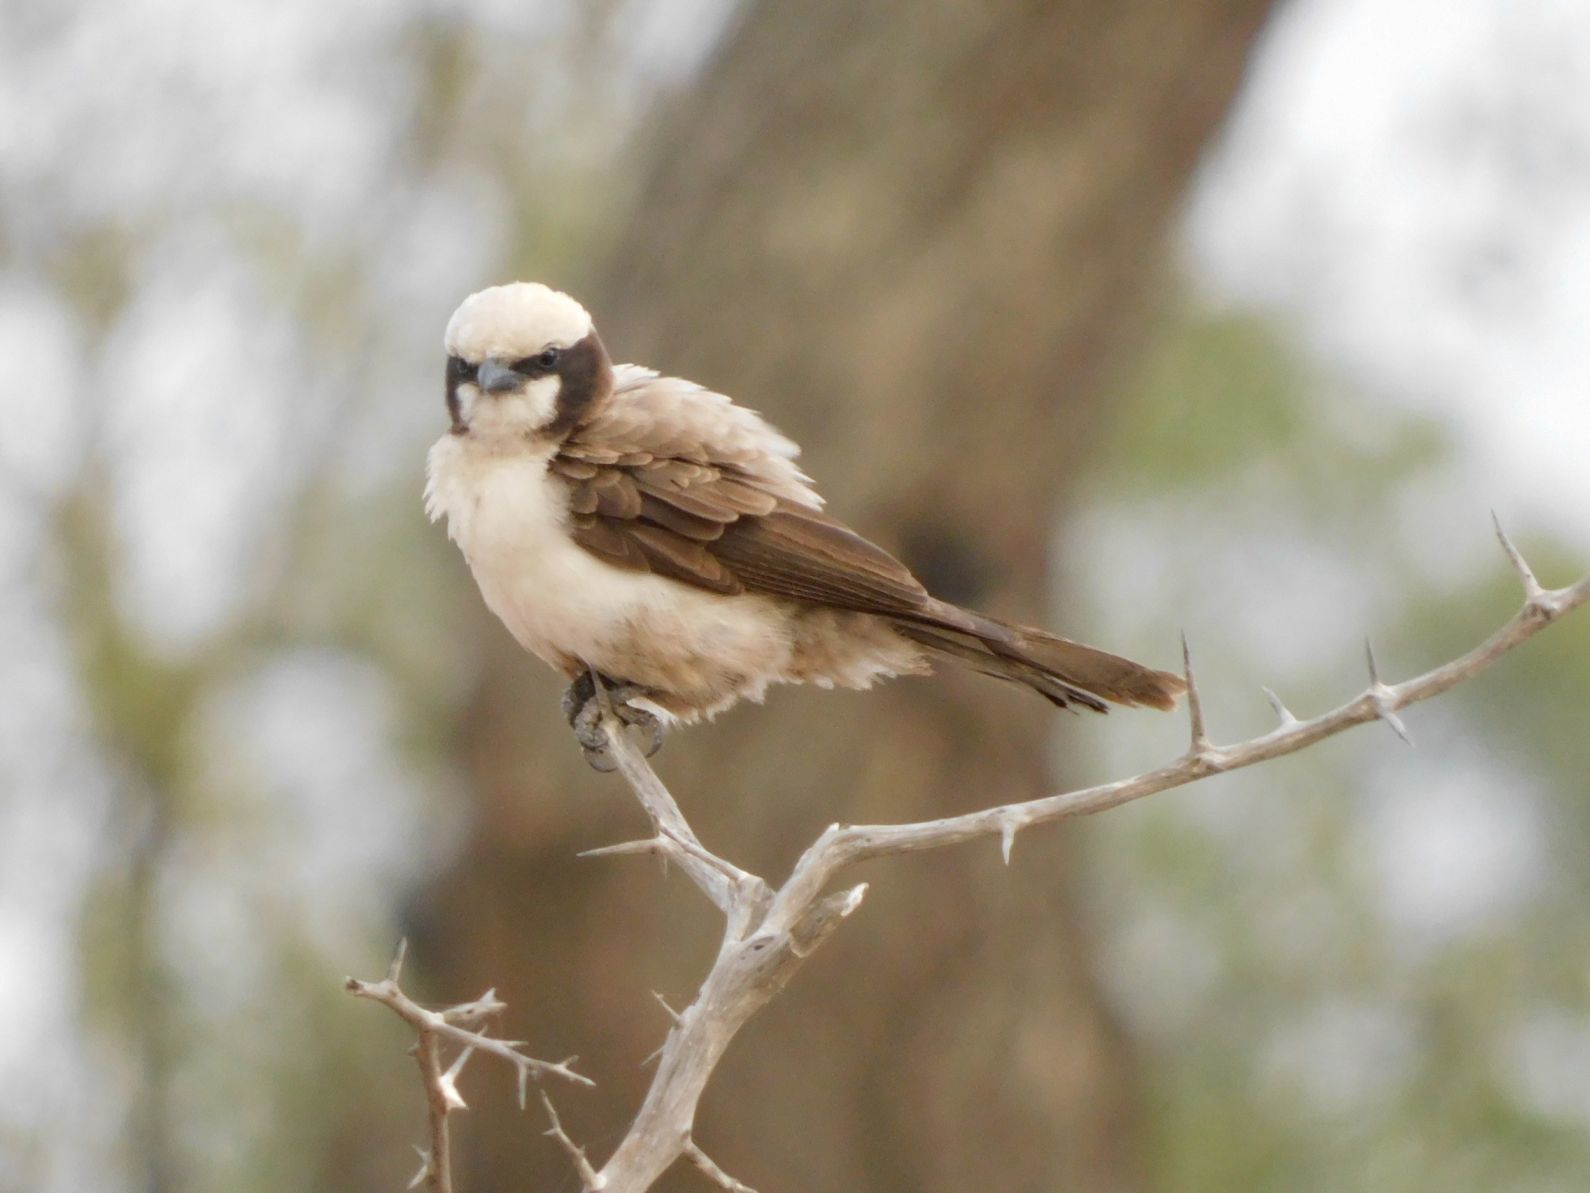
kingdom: Animalia
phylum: Chordata
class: Aves
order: Passeriformes
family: Laniidae
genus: Eurocephalus
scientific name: Eurocephalus anguitimens
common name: Southern white-crowned shrike
